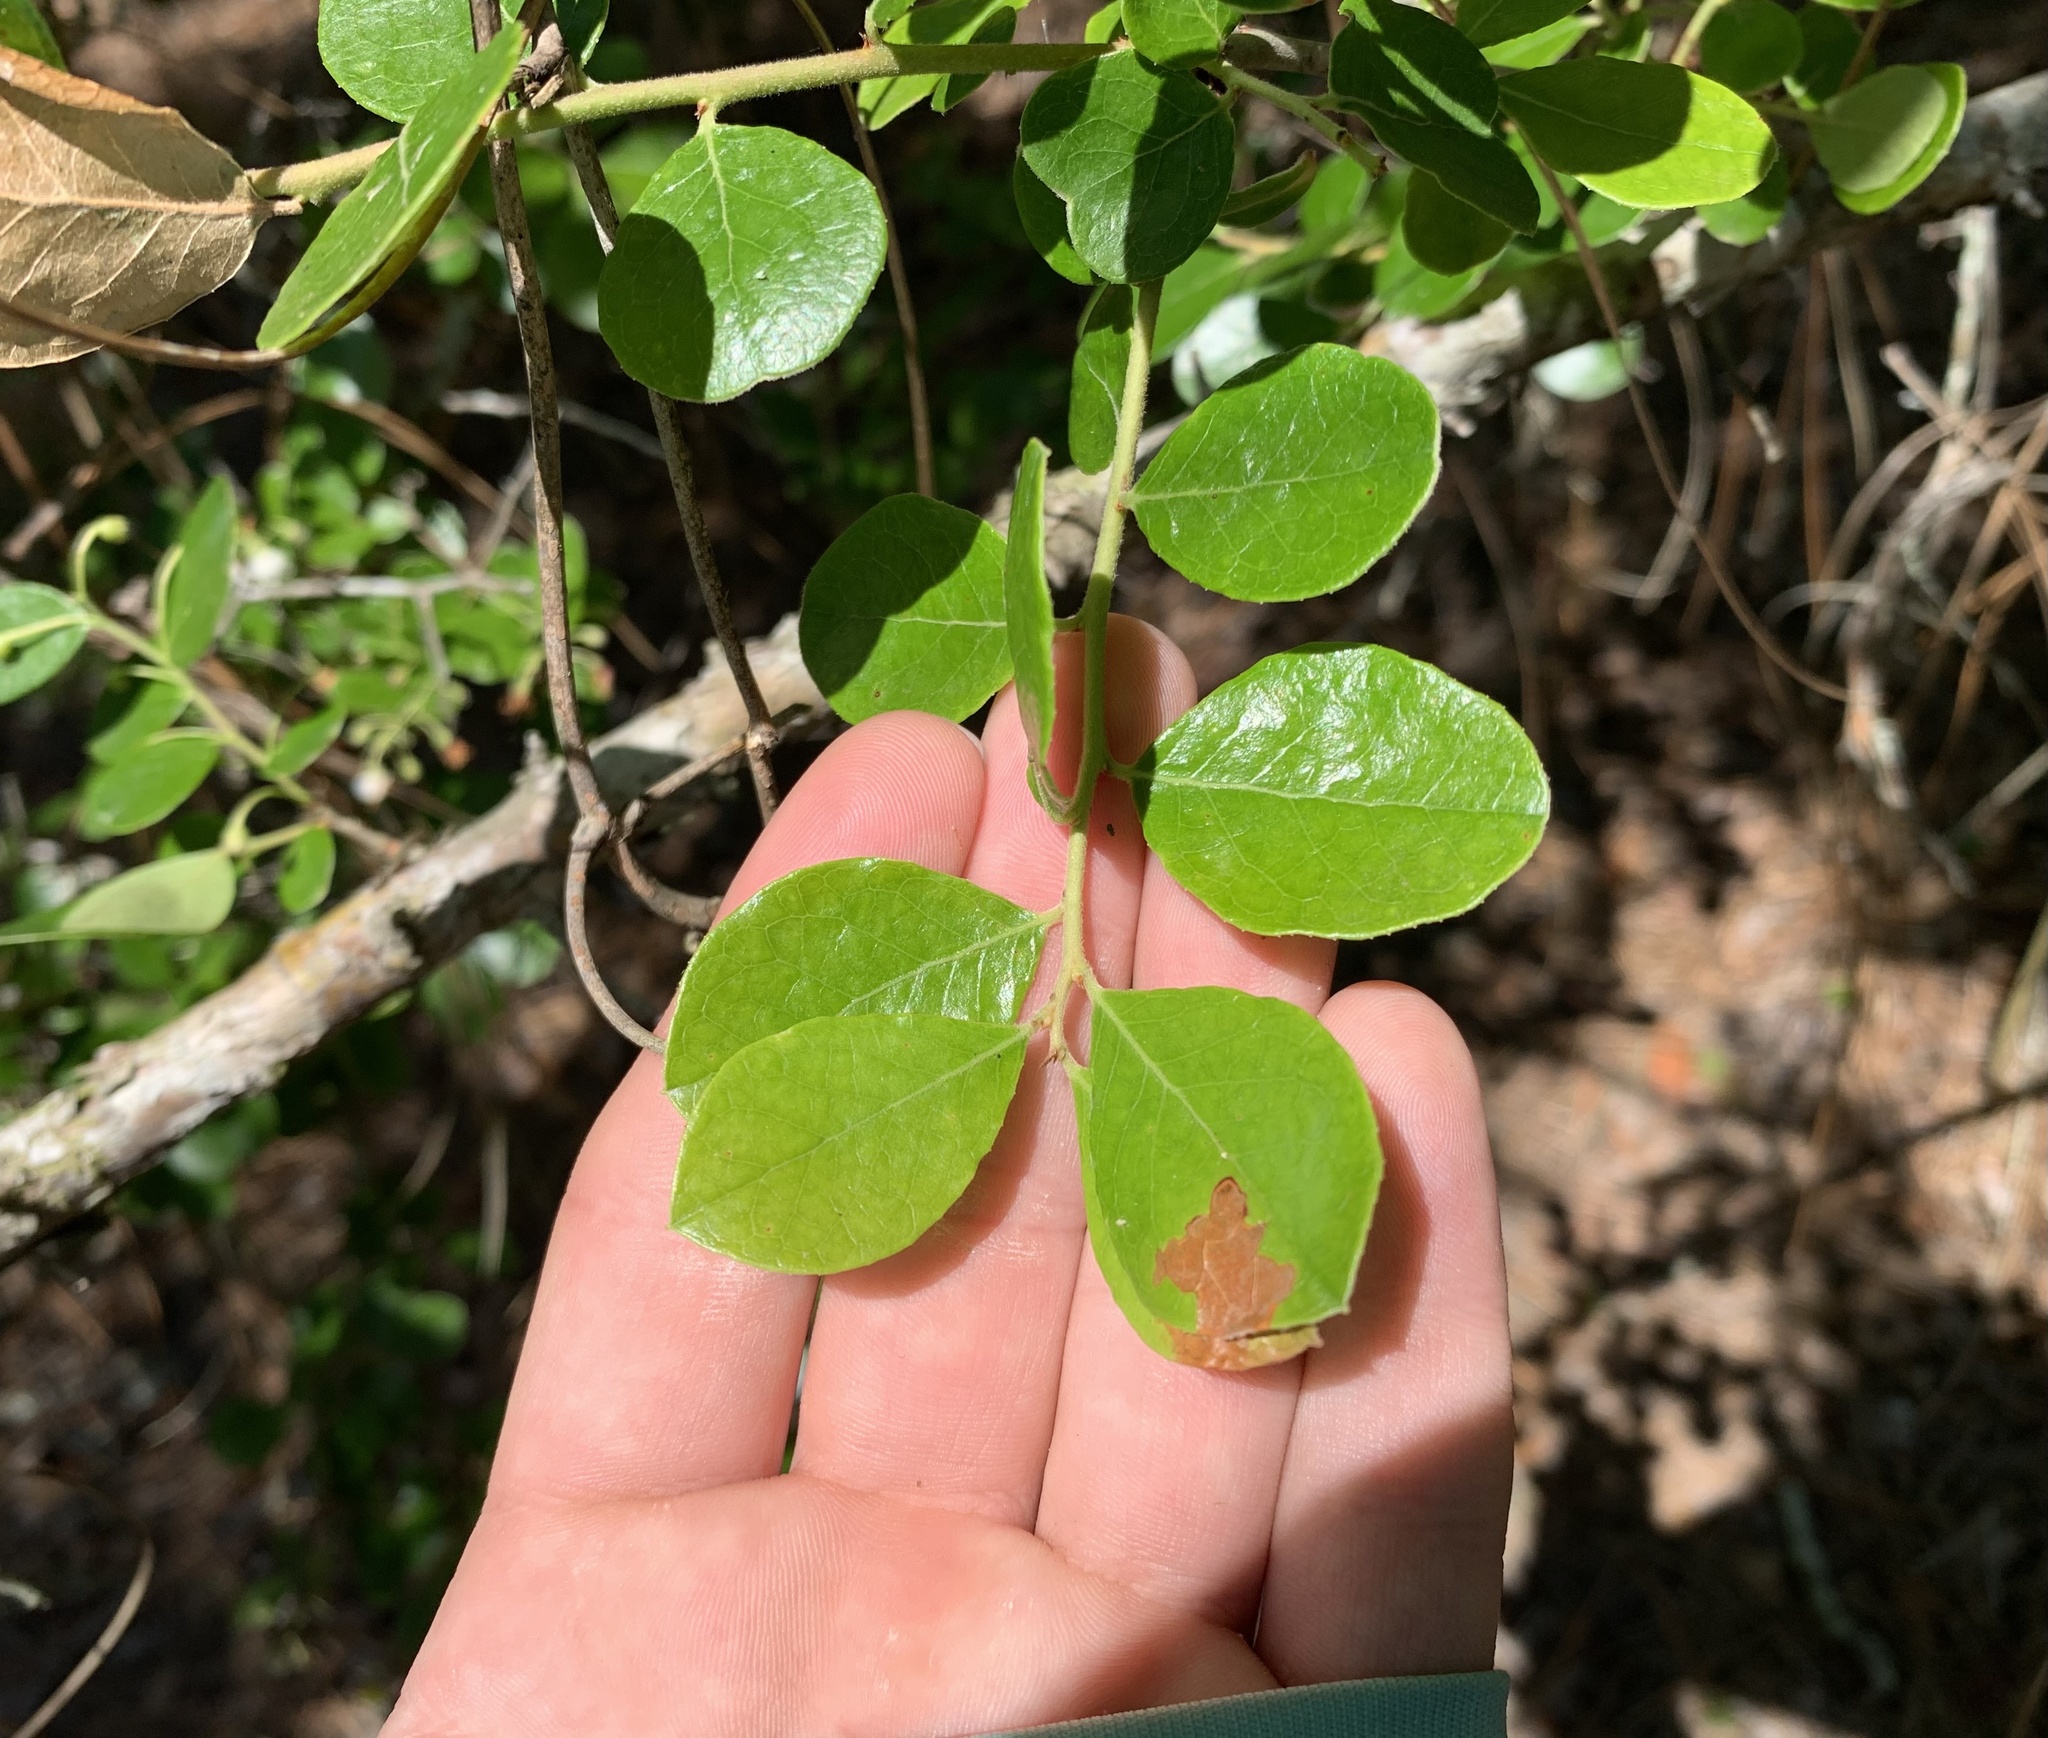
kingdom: Plantae
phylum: Tracheophyta
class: Magnoliopsida
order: Ericales
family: Ericaceae
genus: Vaccinium
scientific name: Vaccinium arboreum
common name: Farkleberry
